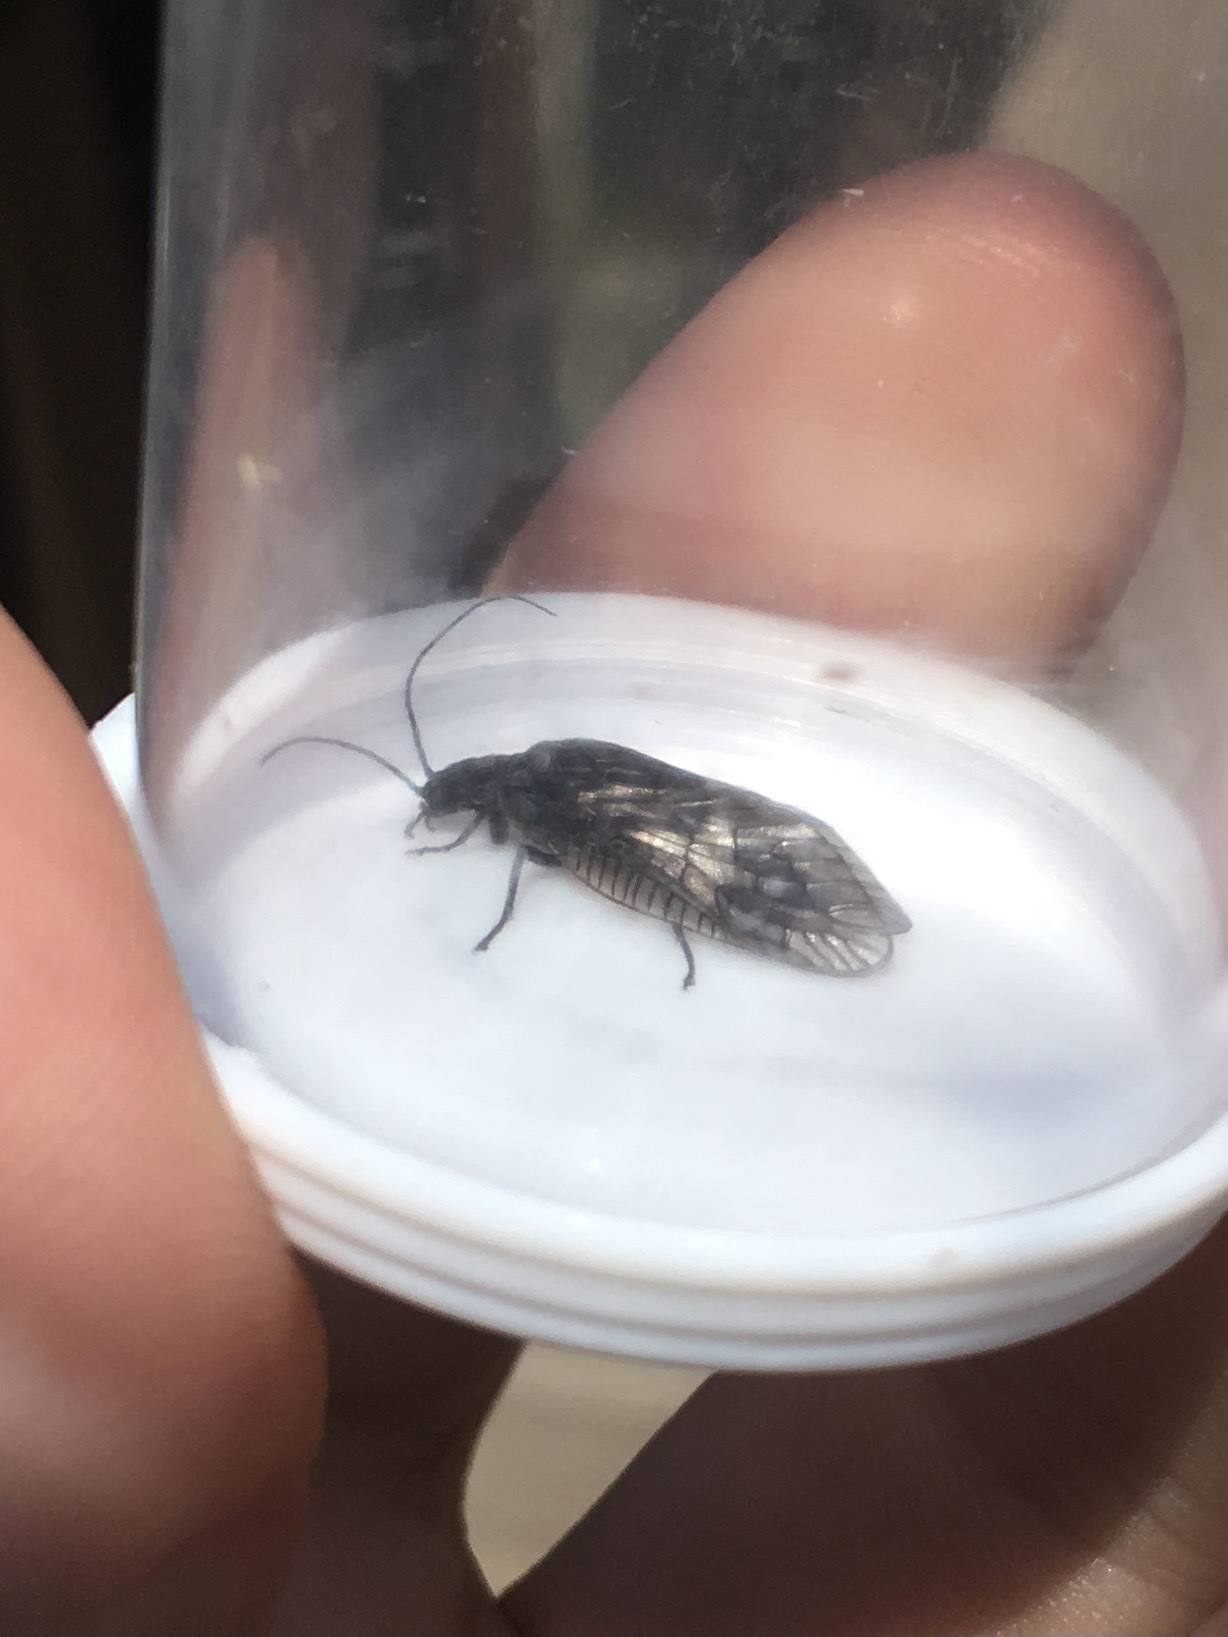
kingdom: Animalia
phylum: Arthropoda
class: Insecta
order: Megaloptera
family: Sialidae
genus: Sialis
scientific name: Sialis
